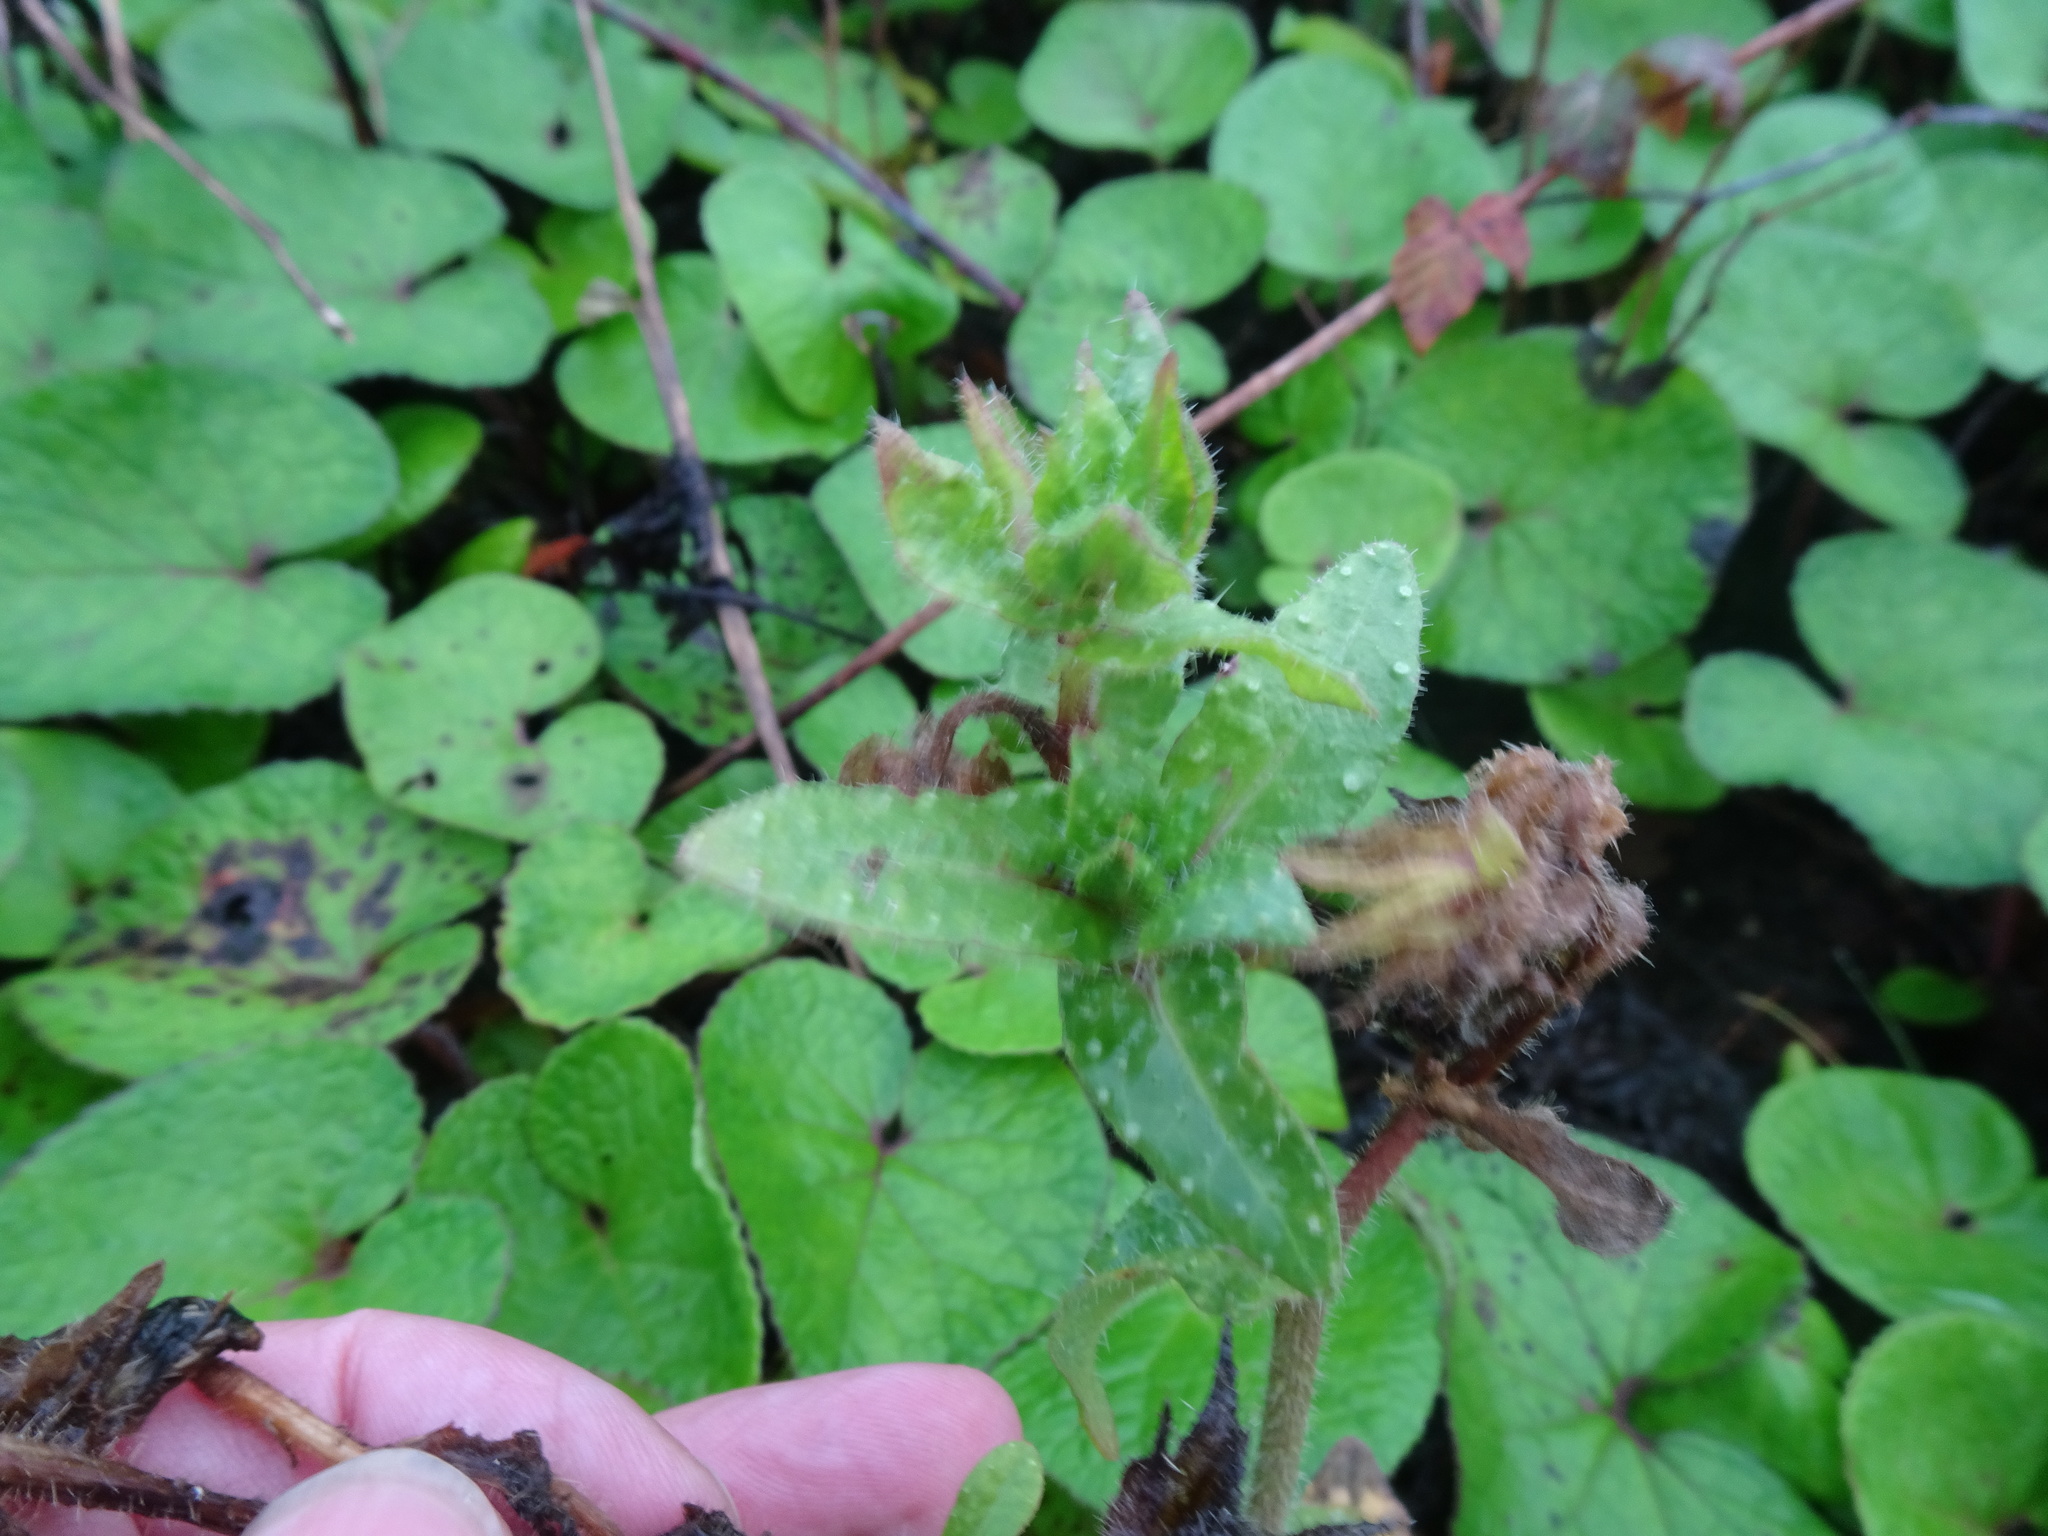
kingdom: Plantae
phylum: Tracheophyta
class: Magnoliopsida
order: Asterales
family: Asteraceae
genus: Helminthotheca
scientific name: Helminthotheca echioides
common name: Ox-tongue
